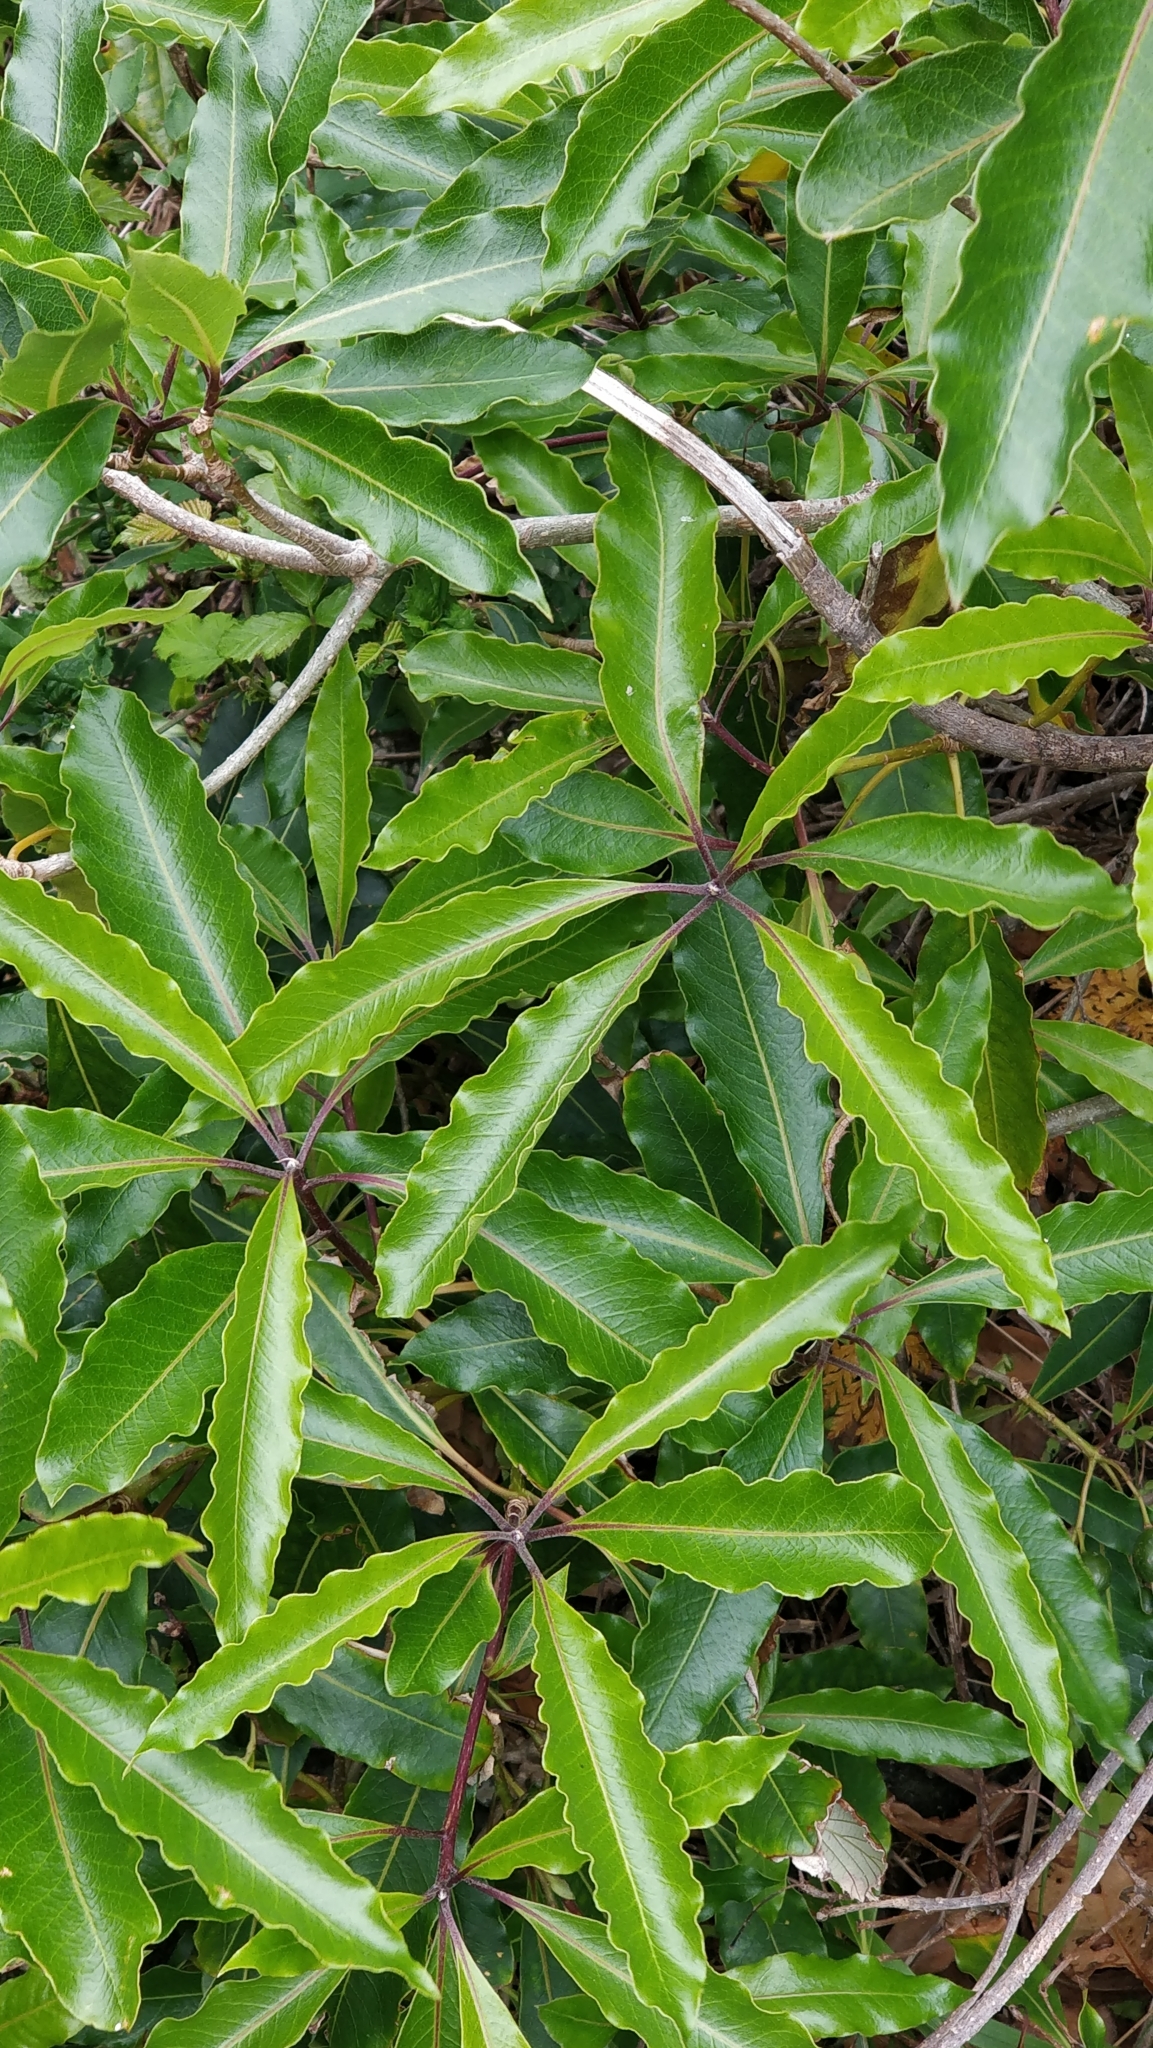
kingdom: Plantae
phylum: Tracheophyta
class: Magnoliopsida
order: Apiales
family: Pittosporaceae
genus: Pittosporum
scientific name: Pittosporum undulatum
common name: Australian cheesewood
